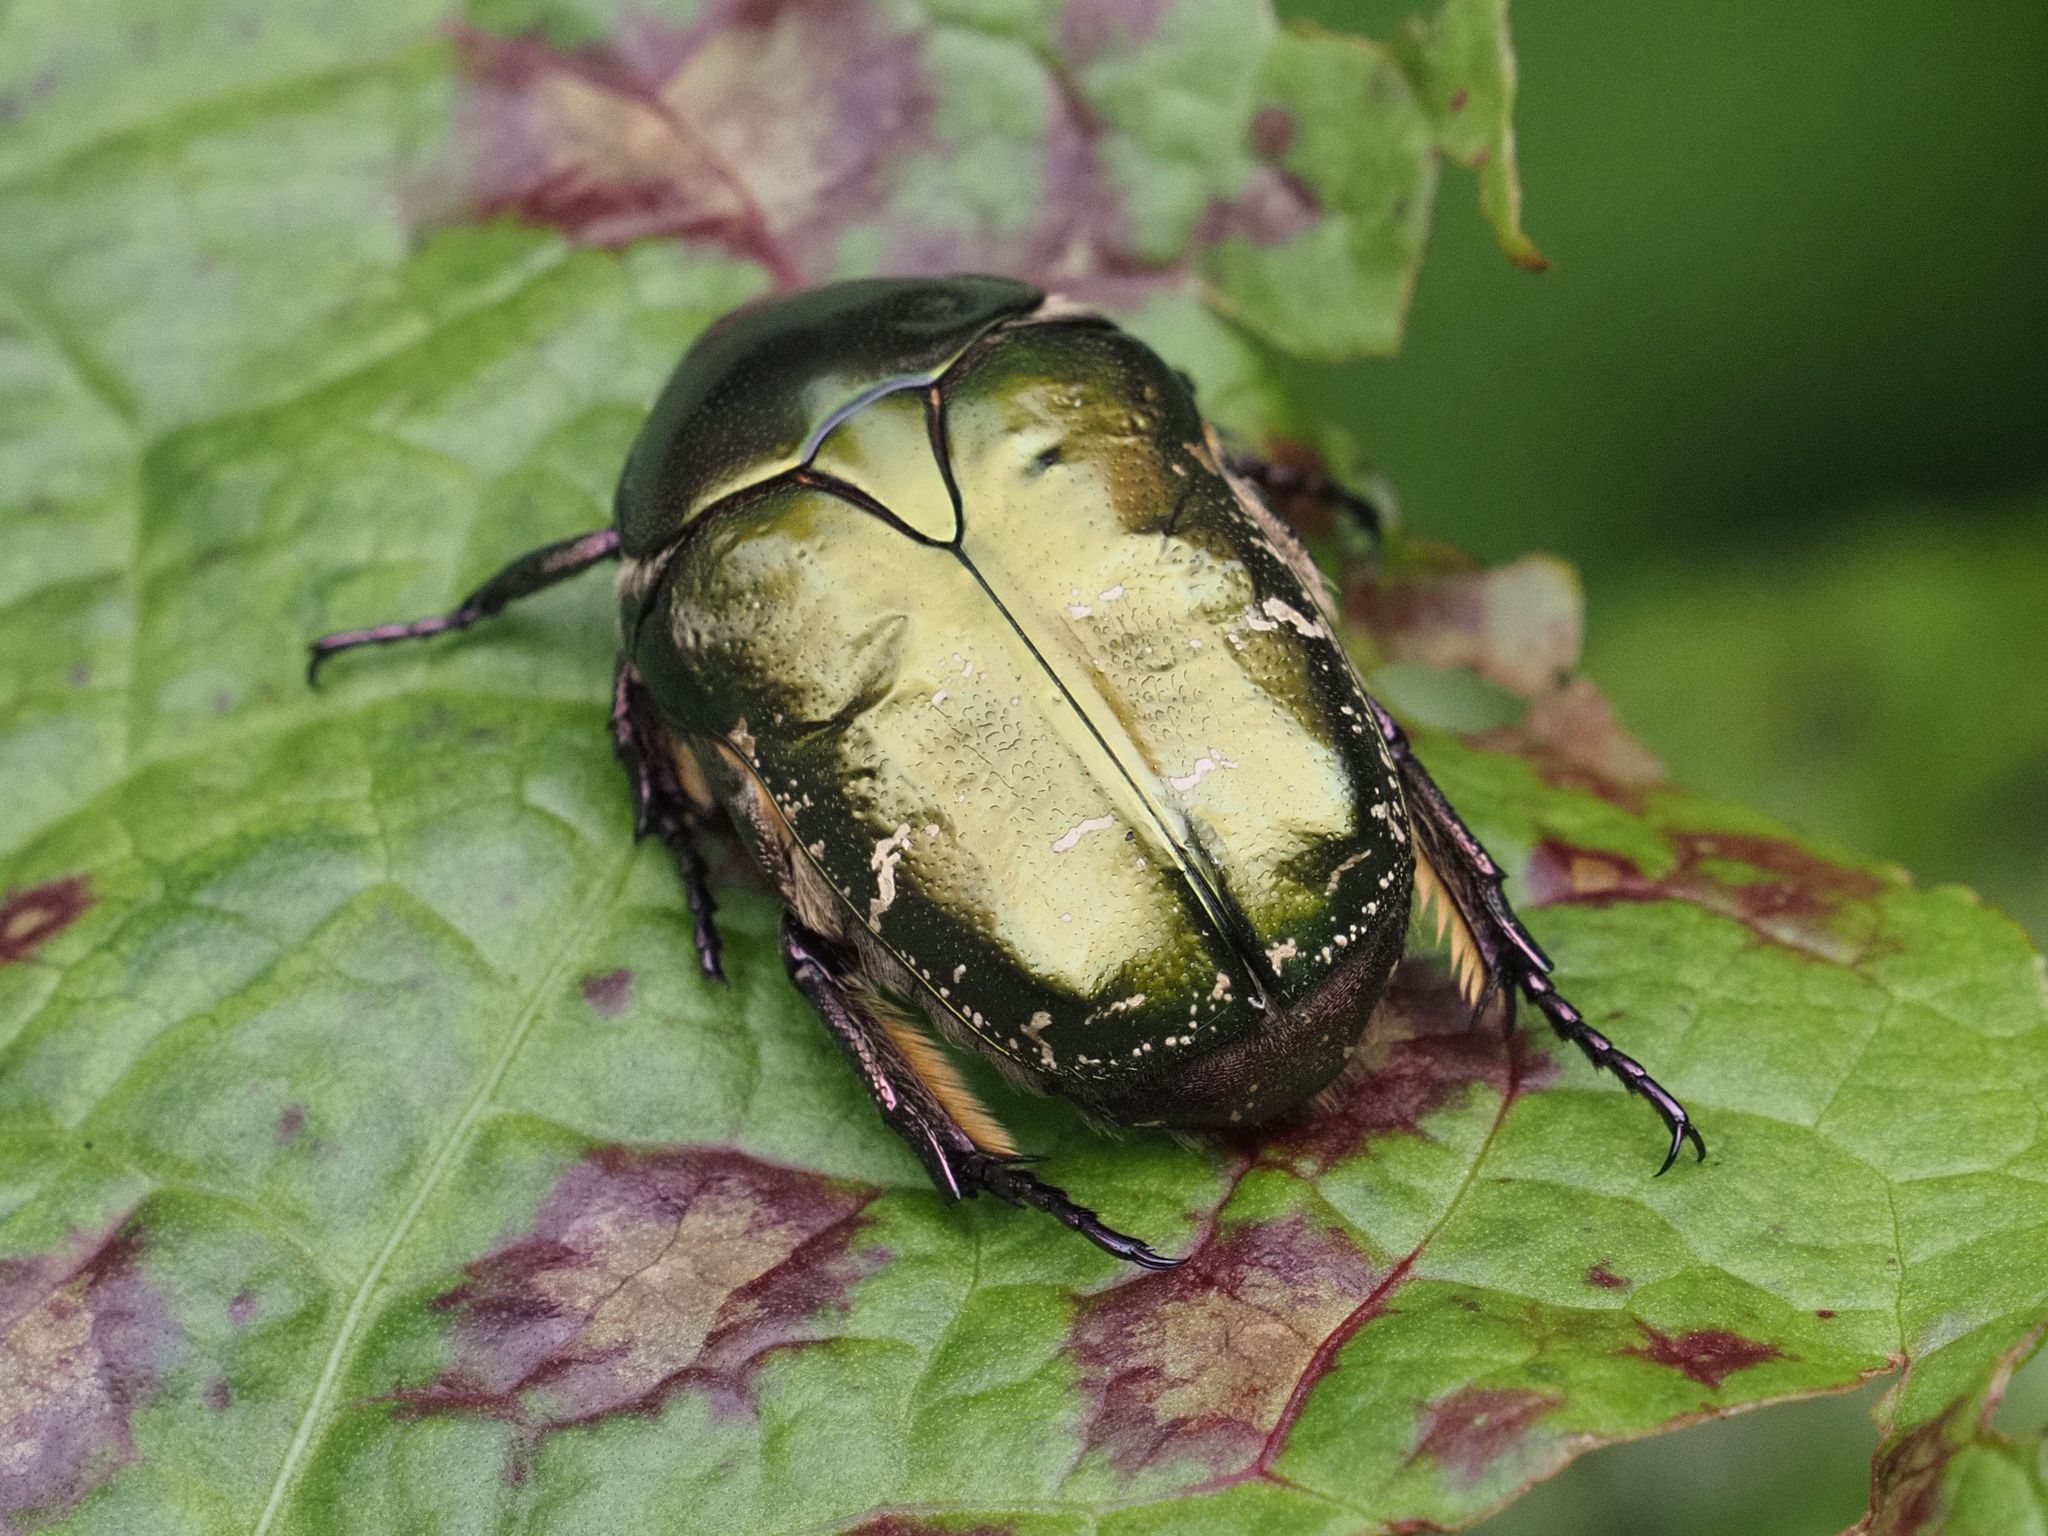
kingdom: Animalia
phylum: Arthropoda
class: Insecta
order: Coleoptera
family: Scarabaeidae
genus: Protaetia
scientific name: Protaetia cuprea
